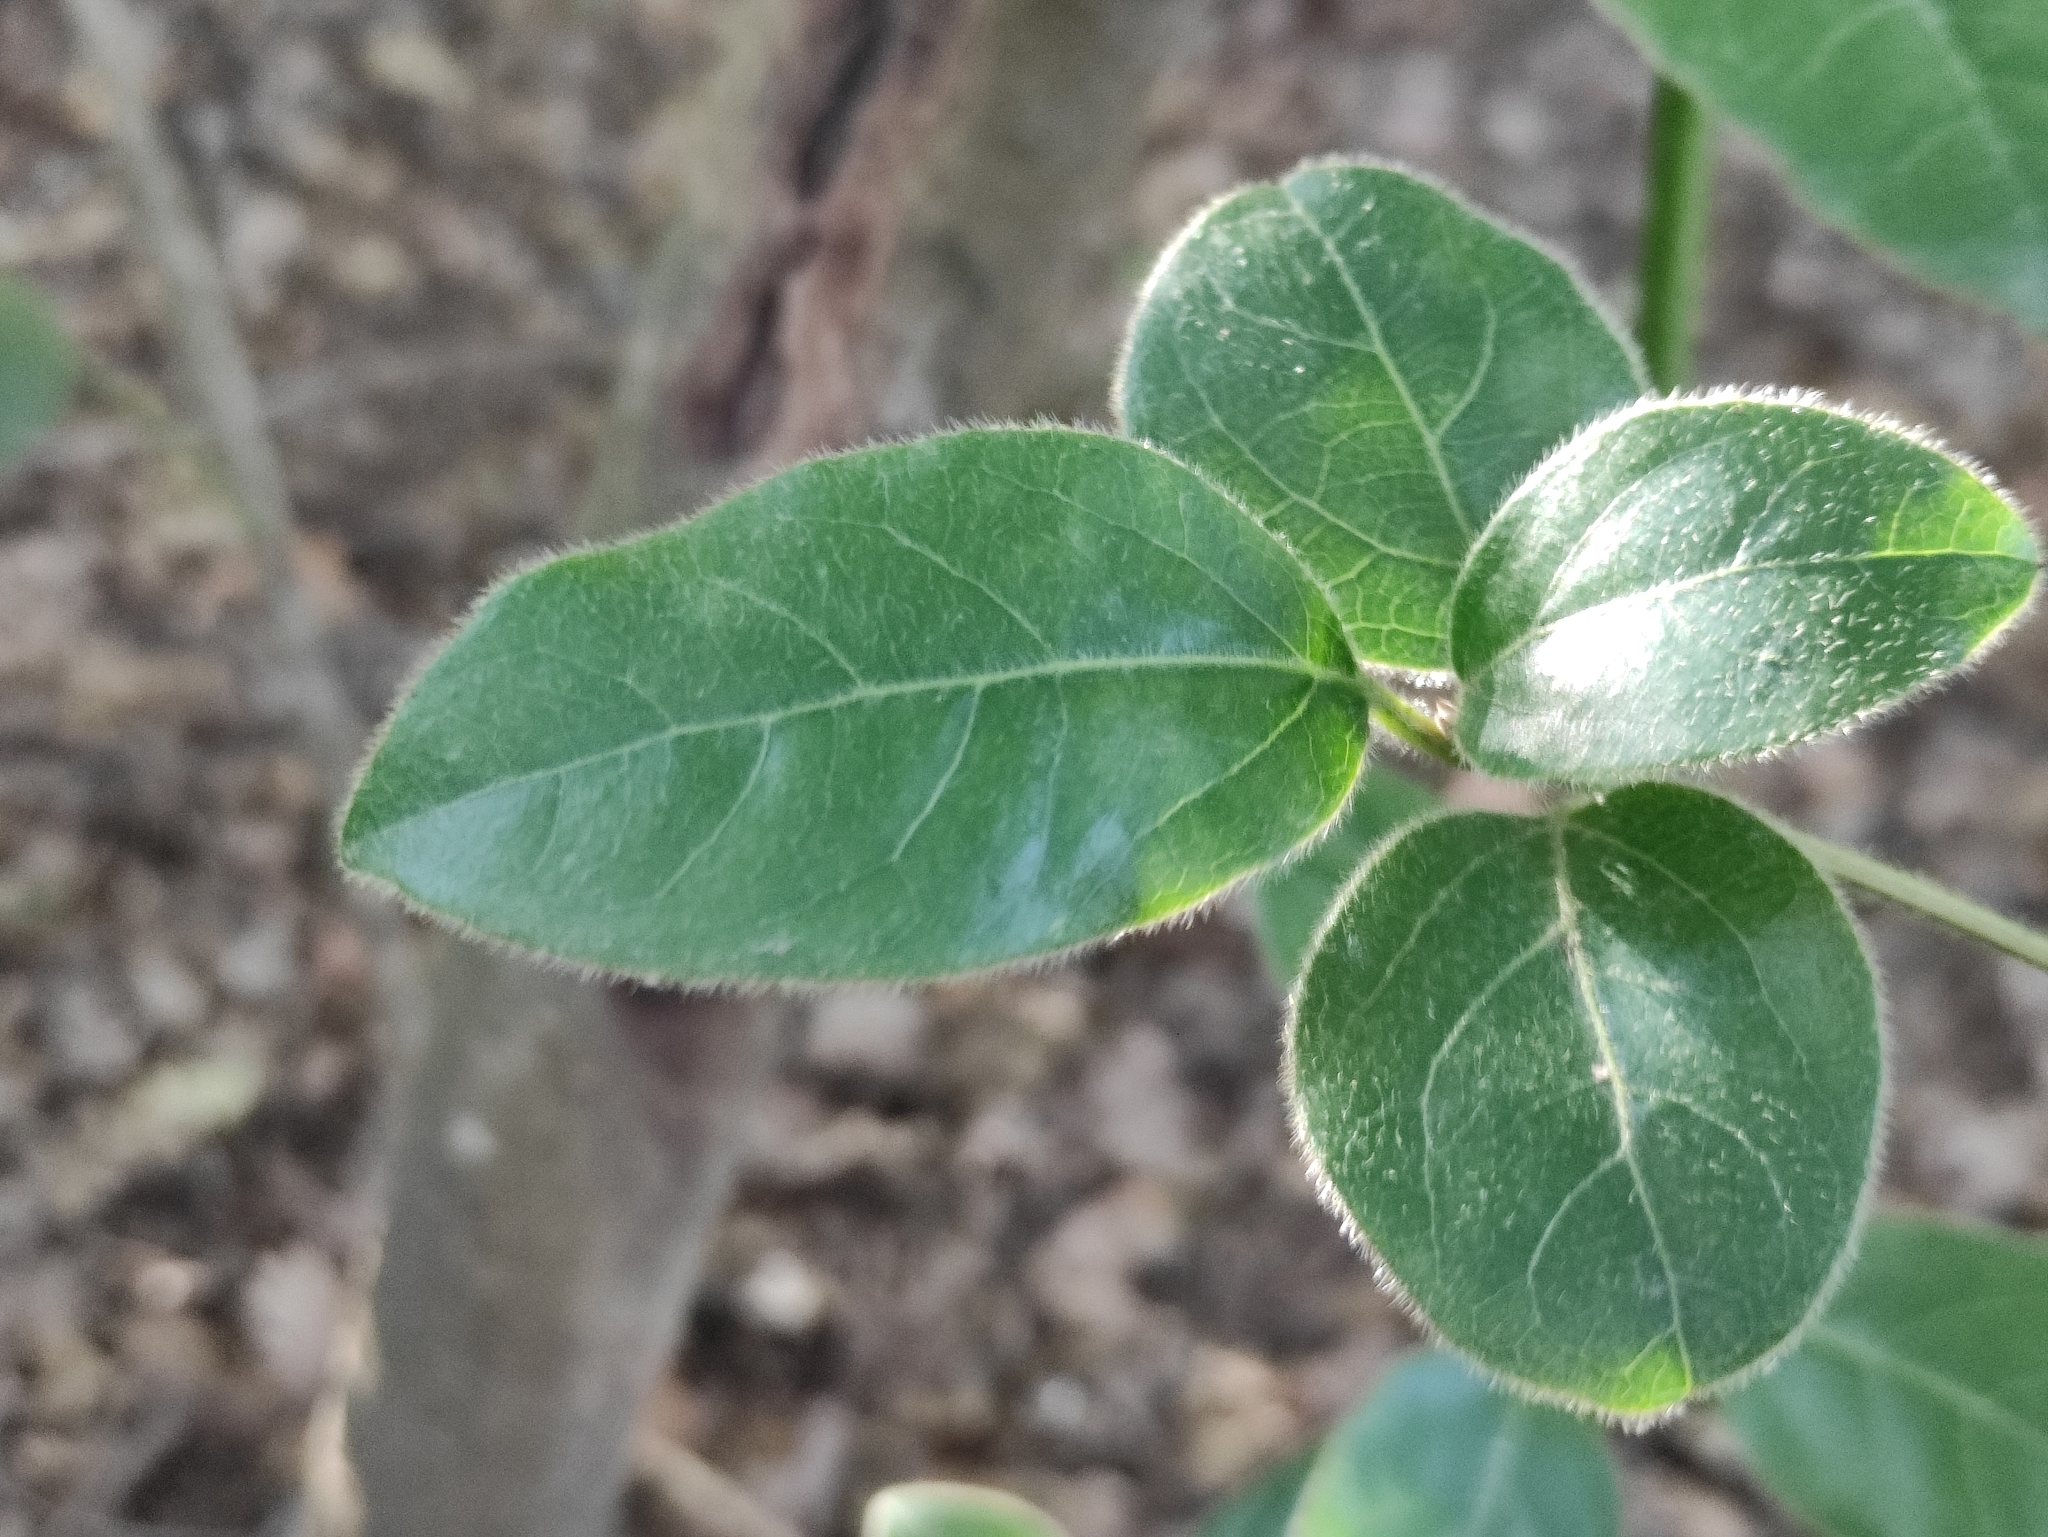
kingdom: Plantae
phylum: Tracheophyta
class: Magnoliopsida
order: Dipsacales
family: Viburnaceae
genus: Viburnum
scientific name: Viburnum tinus
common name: Laurustinus
